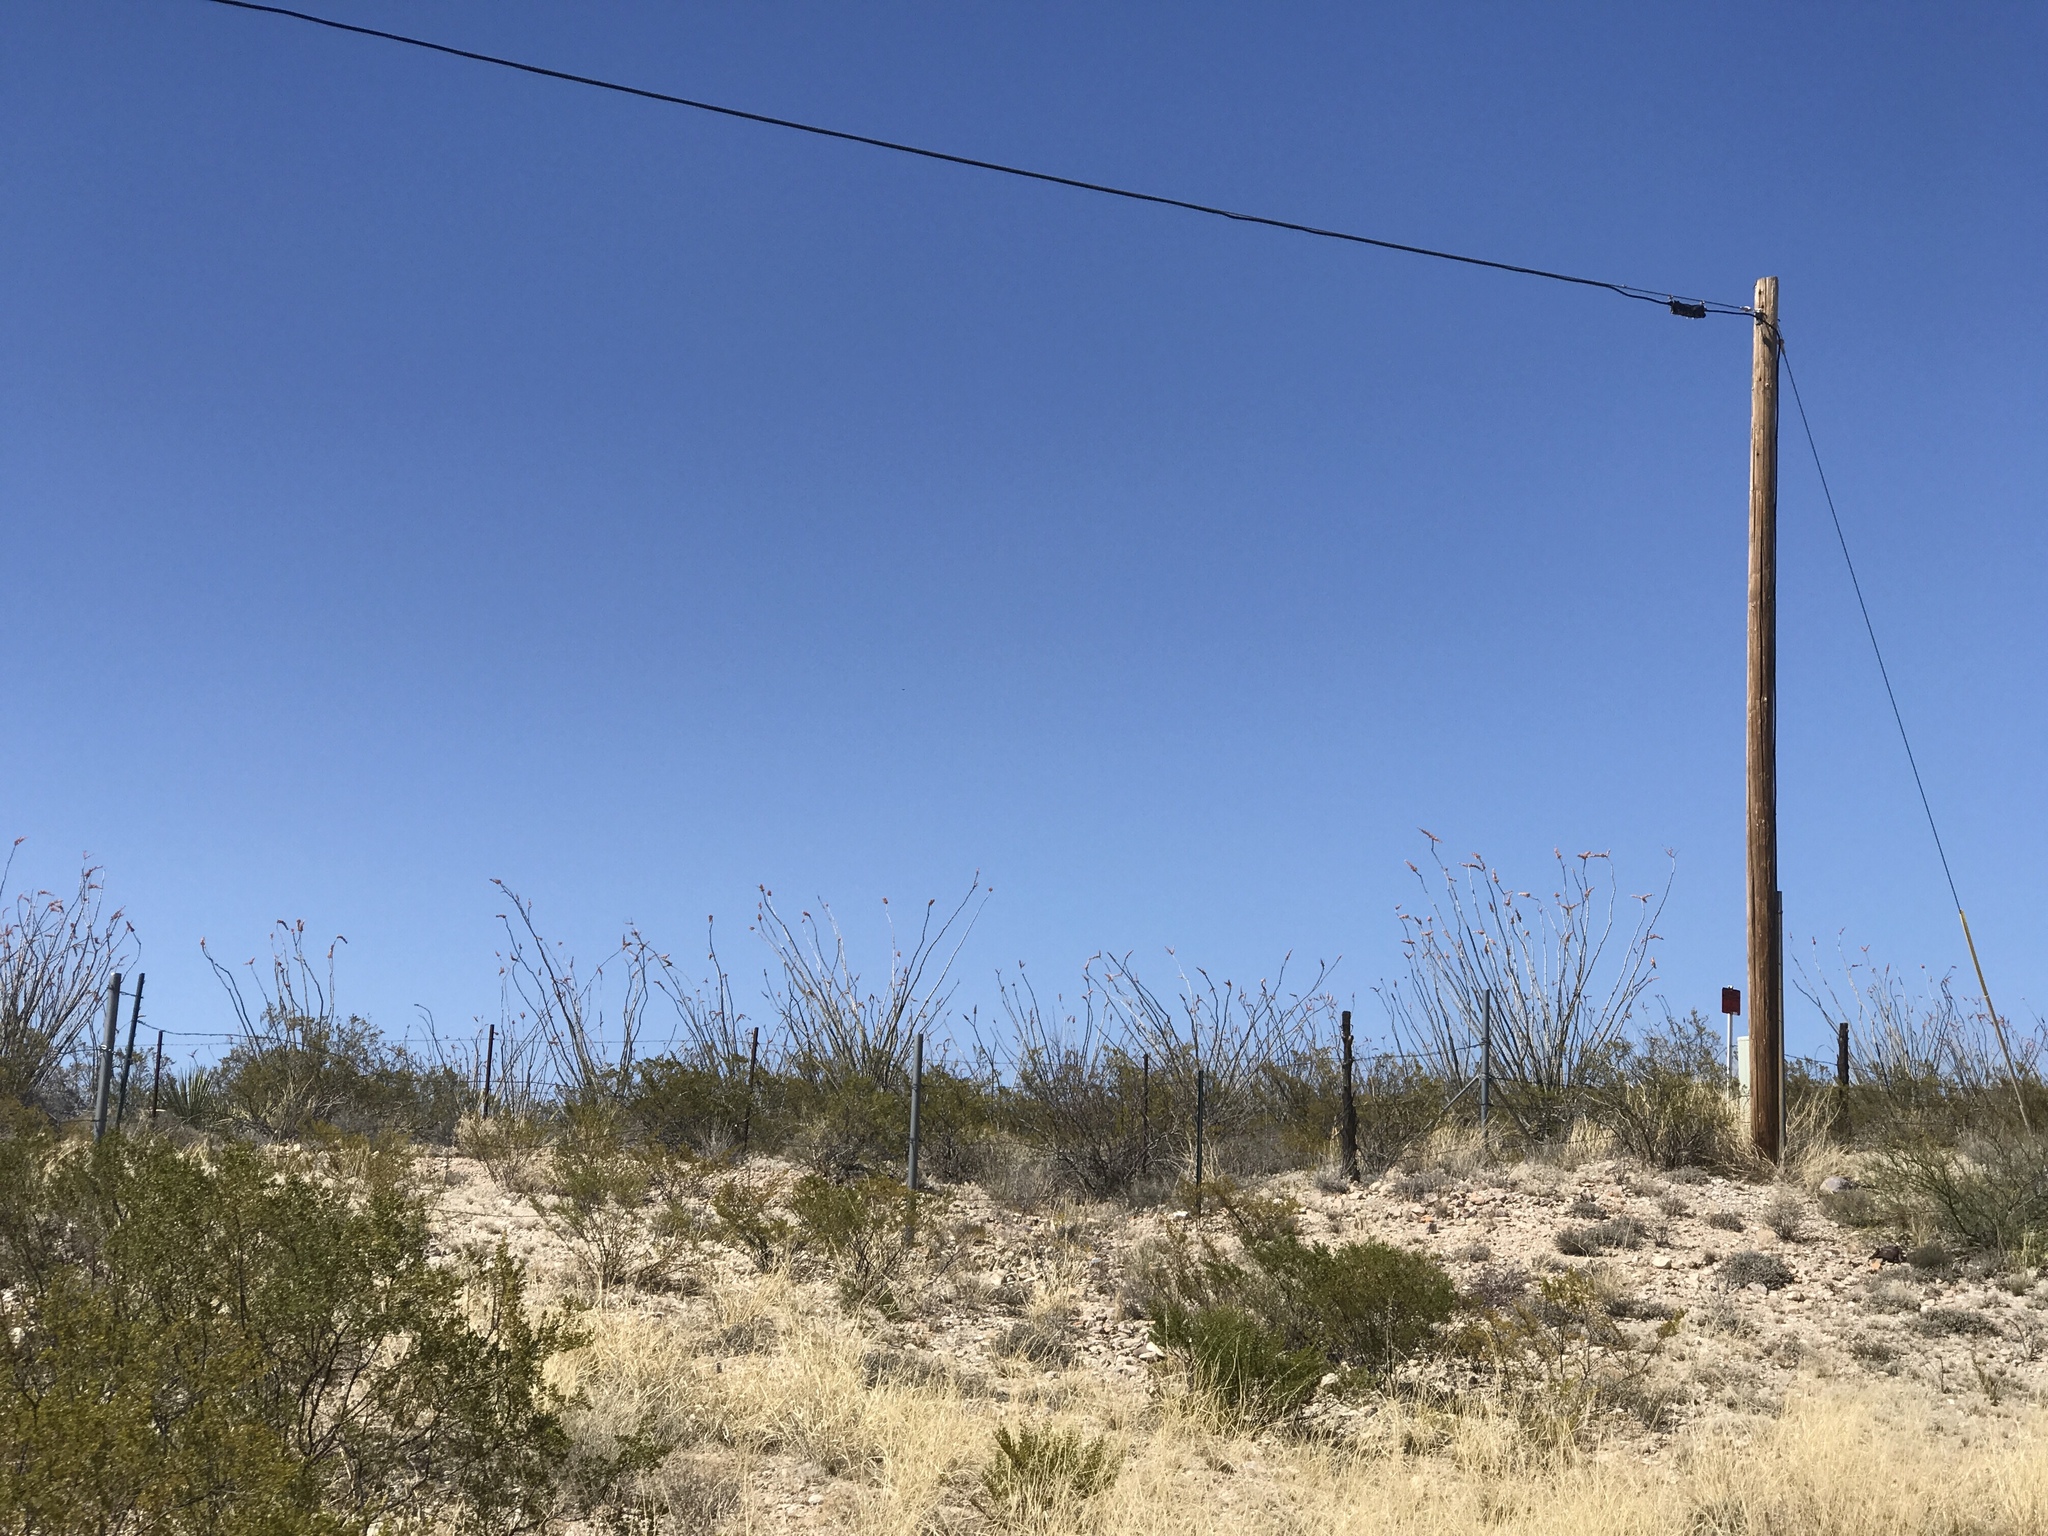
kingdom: Plantae
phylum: Tracheophyta
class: Magnoliopsida
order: Ericales
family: Fouquieriaceae
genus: Fouquieria
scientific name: Fouquieria splendens
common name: Vine-cactus
